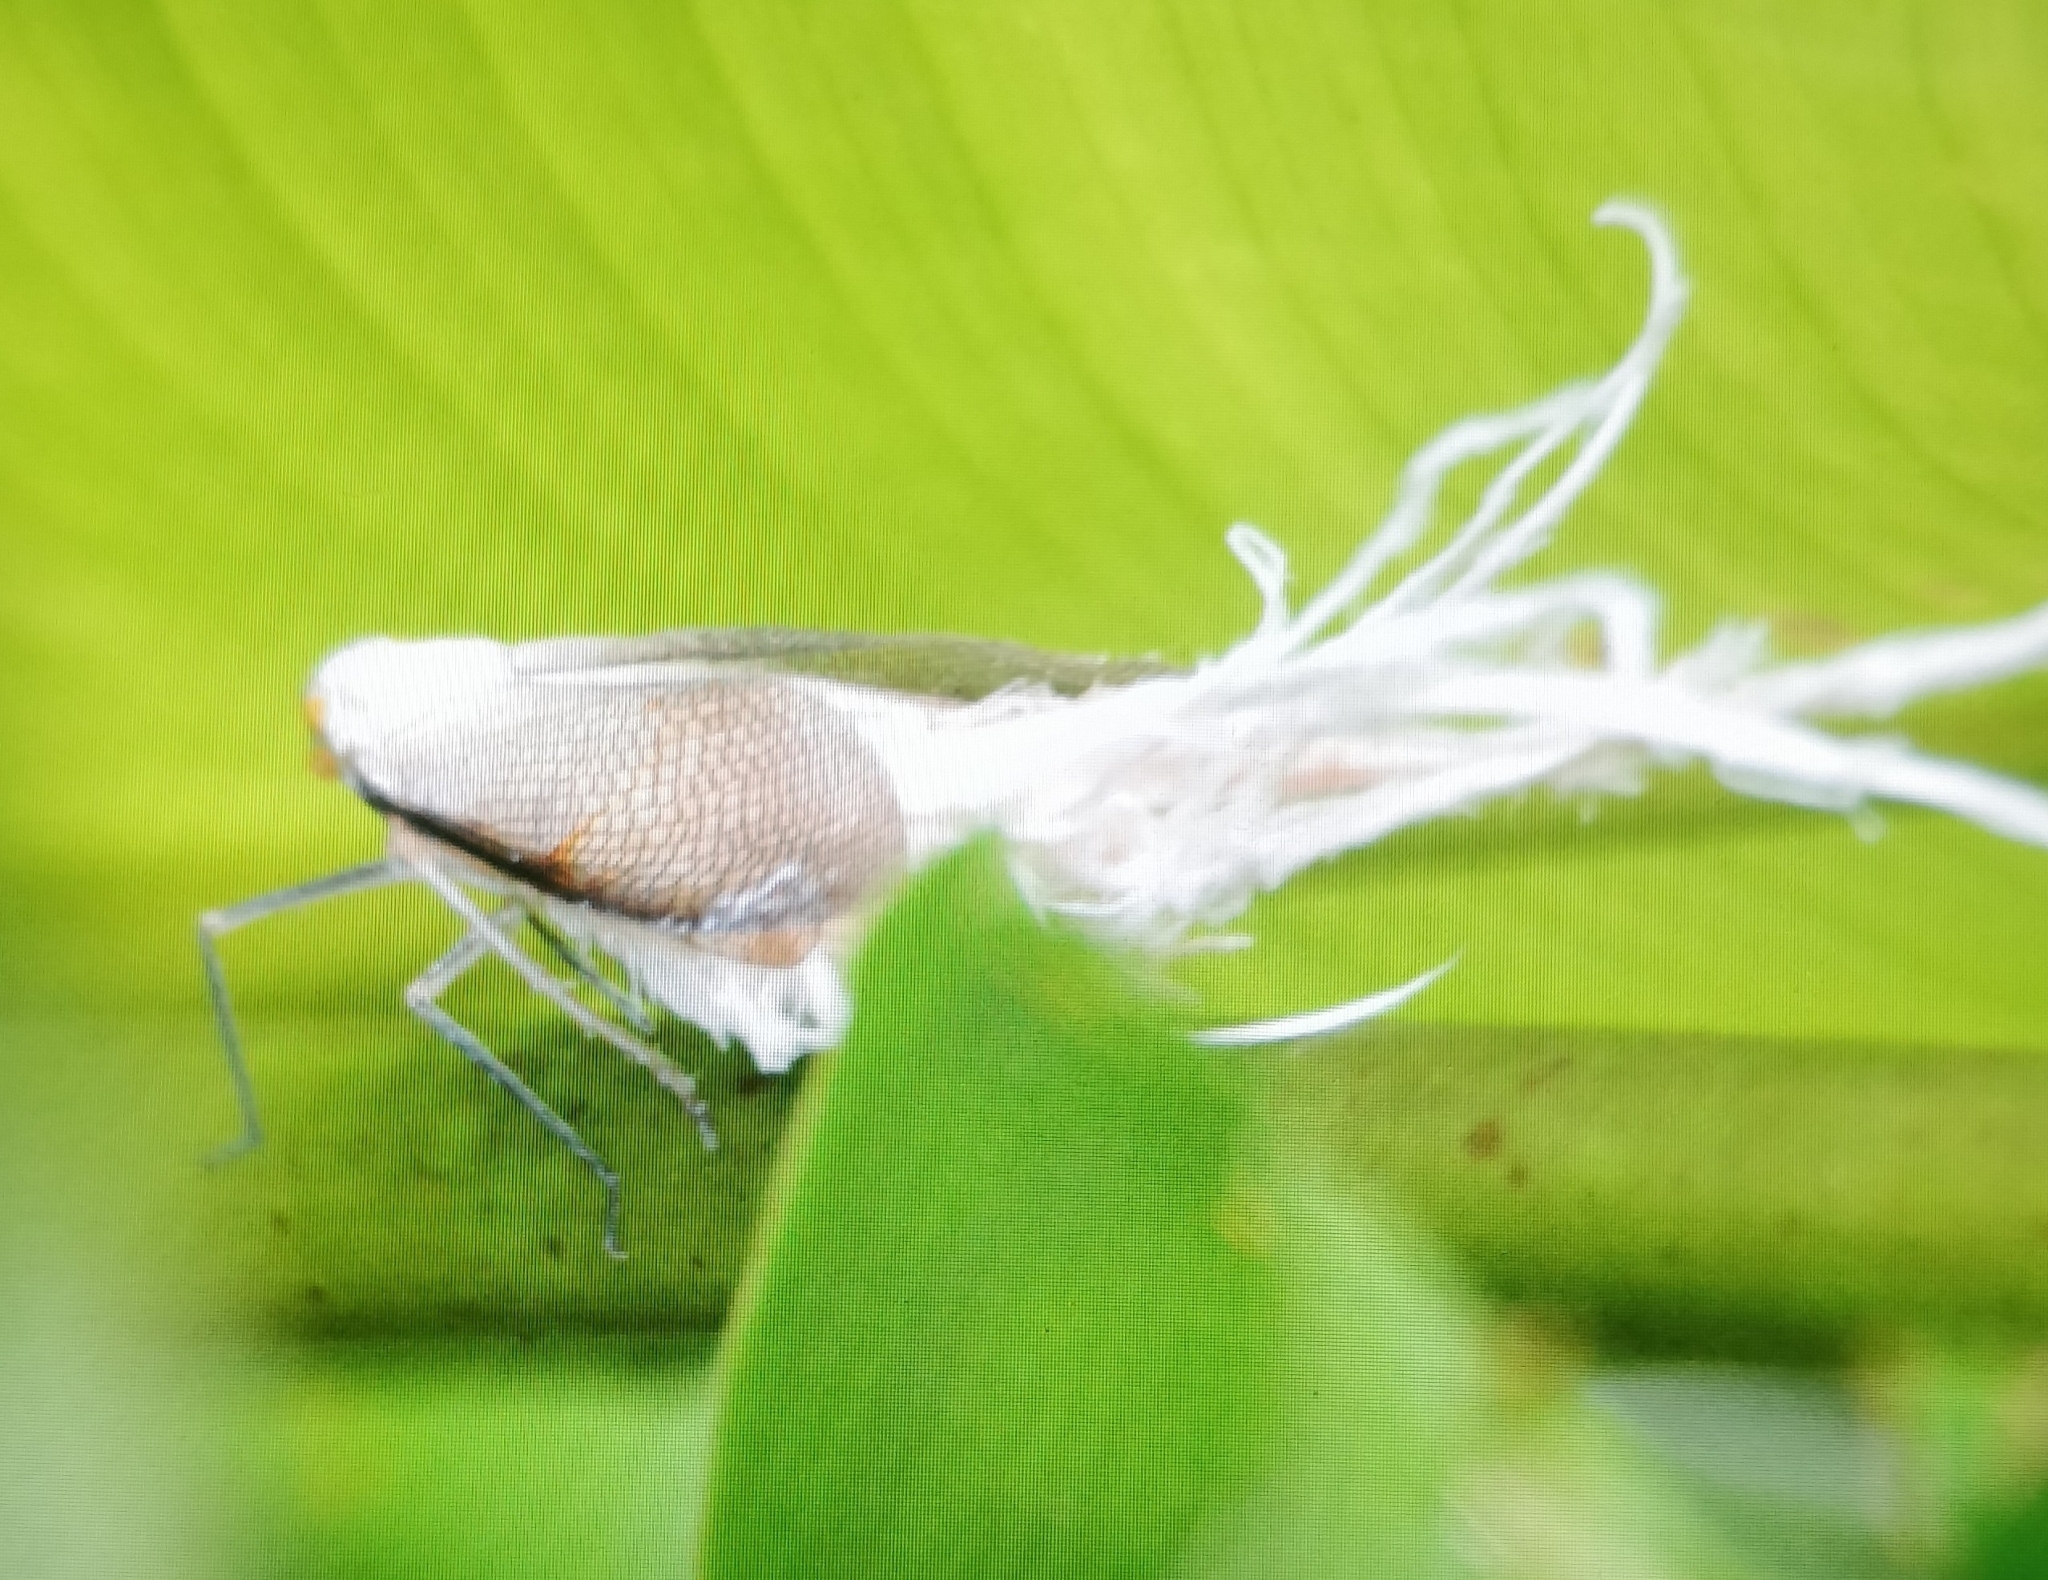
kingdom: Animalia
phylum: Arthropoda
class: Insecta
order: Hemiptera
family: Fulgoridae
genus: Pterodictya
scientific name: Pterodictya reticularis
